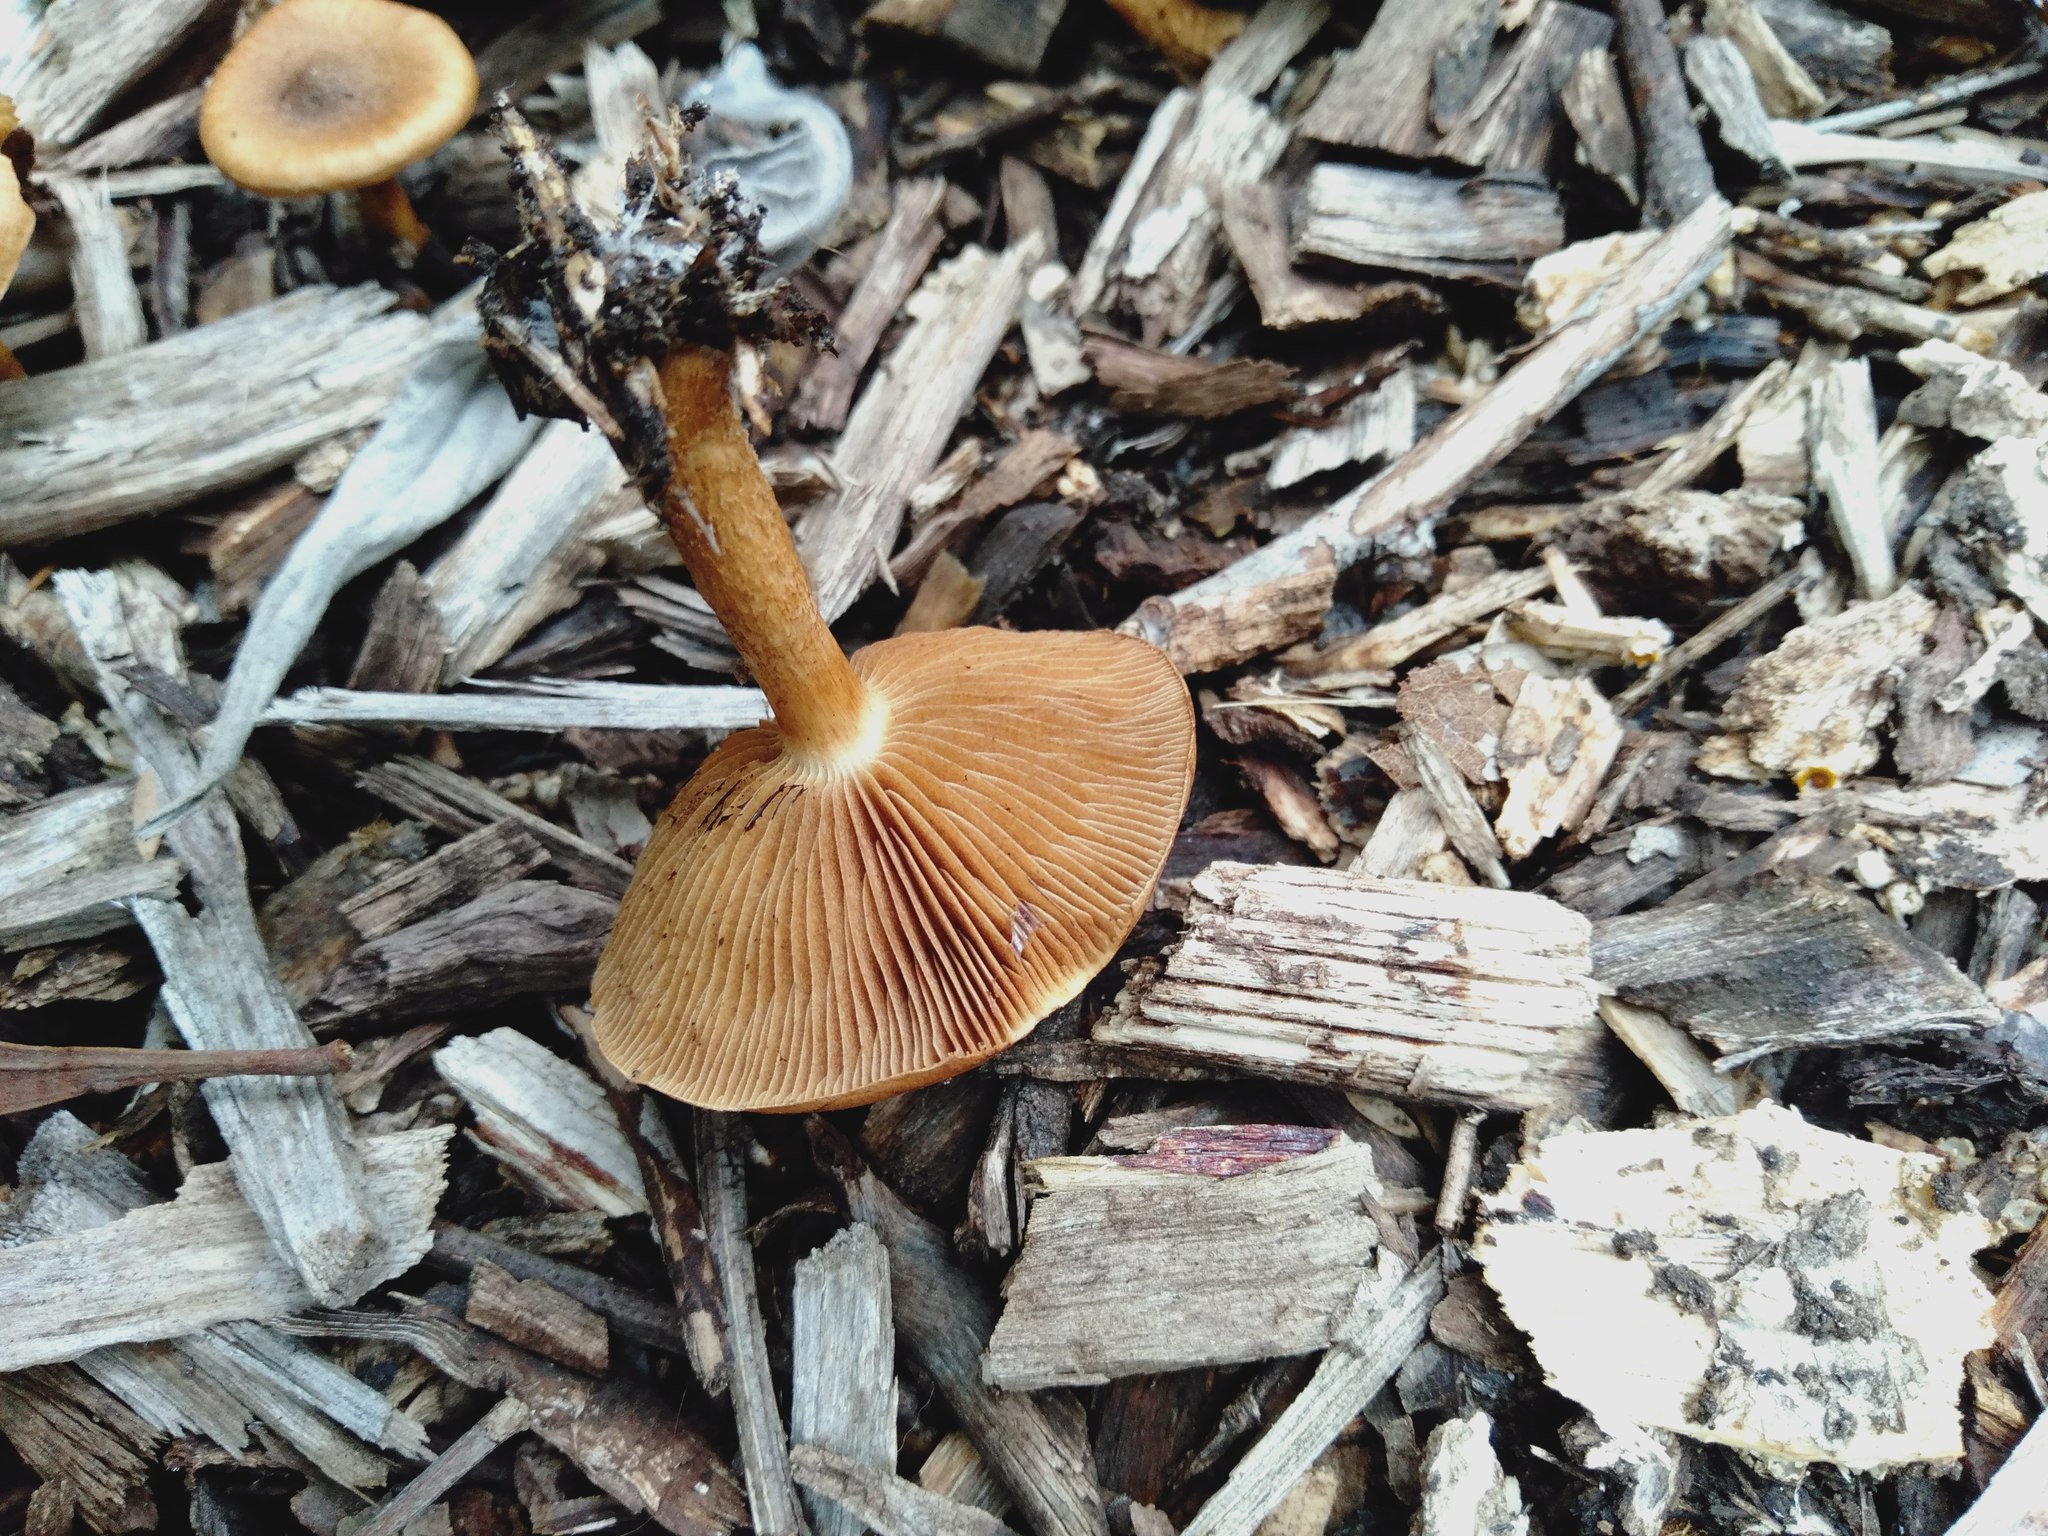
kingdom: Fungi
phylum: Basidiomycota
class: Agaricomycetes
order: Agaricales
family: Strophariaceae
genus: Pholiota
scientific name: Pholiota communis
